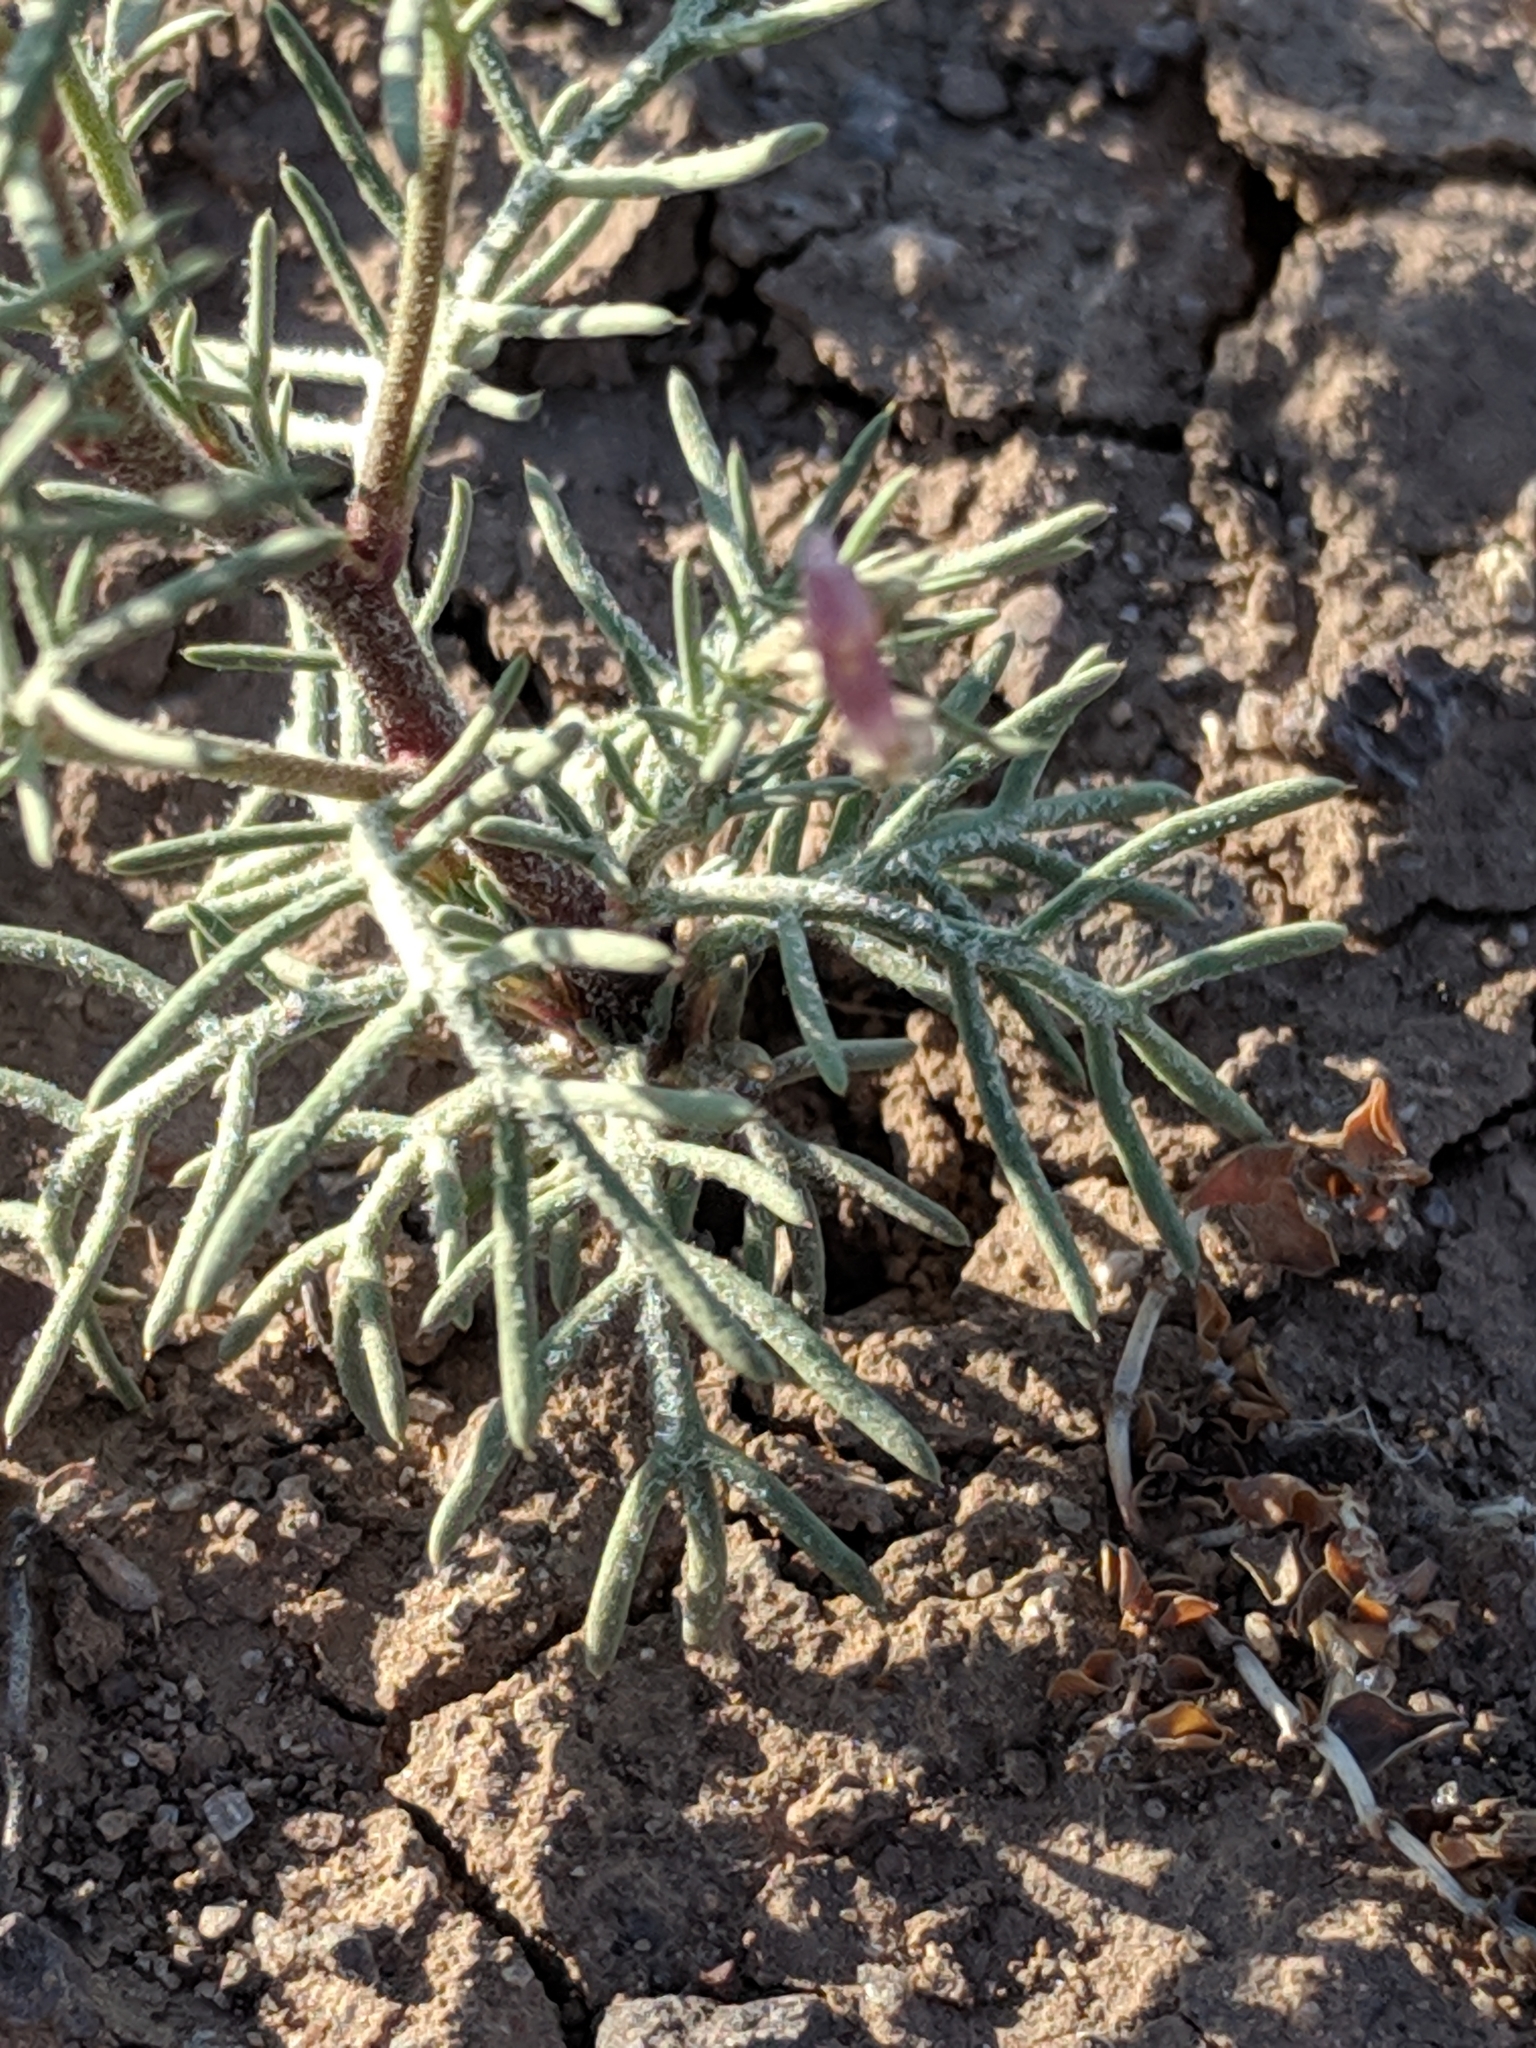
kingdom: Plantae
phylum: Tracheophyta
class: Magnoliopsida
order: Ericales
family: Polemoniaceae
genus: Ipomopsis
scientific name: Ipomopsis laxiflora
